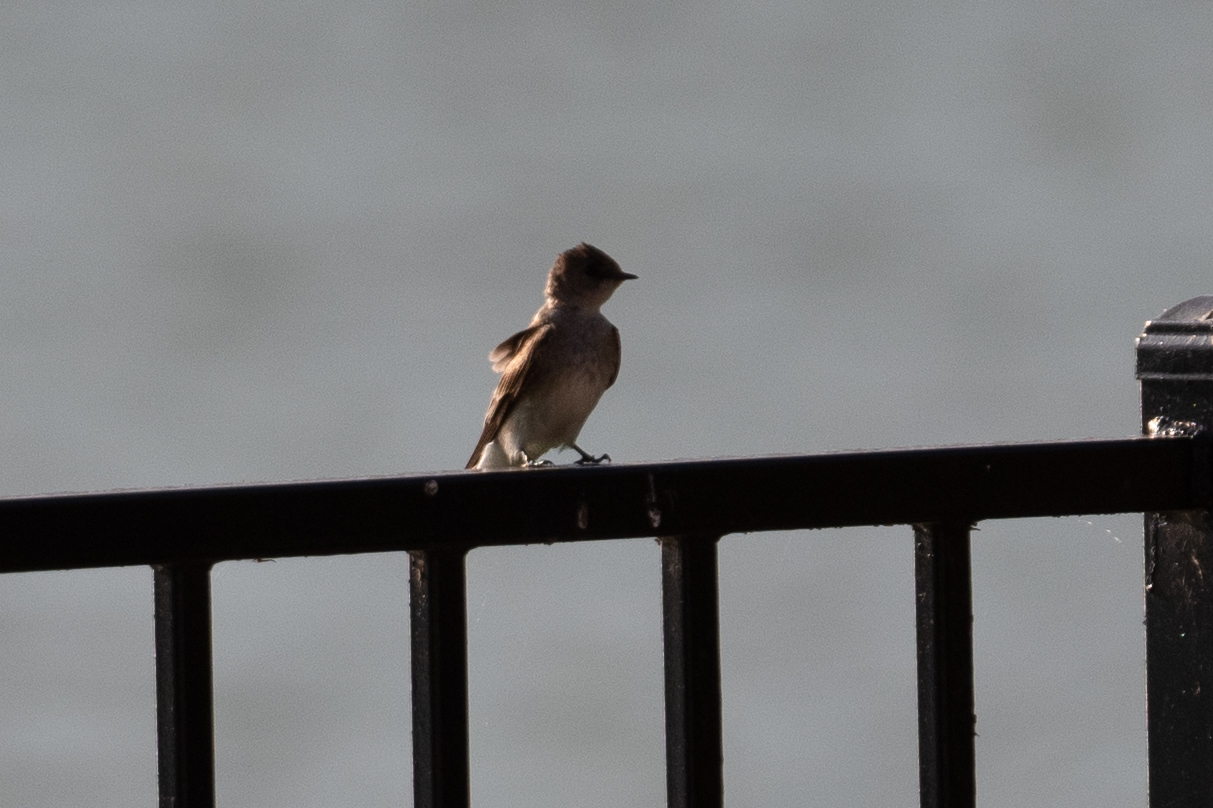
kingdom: Animalia
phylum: Chordata
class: Aves
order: Passeriformes
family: Hirundinidae
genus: Stelgidopteryx
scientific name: Stelgidopteryx serripennis
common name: Northern rough-winged swallow
